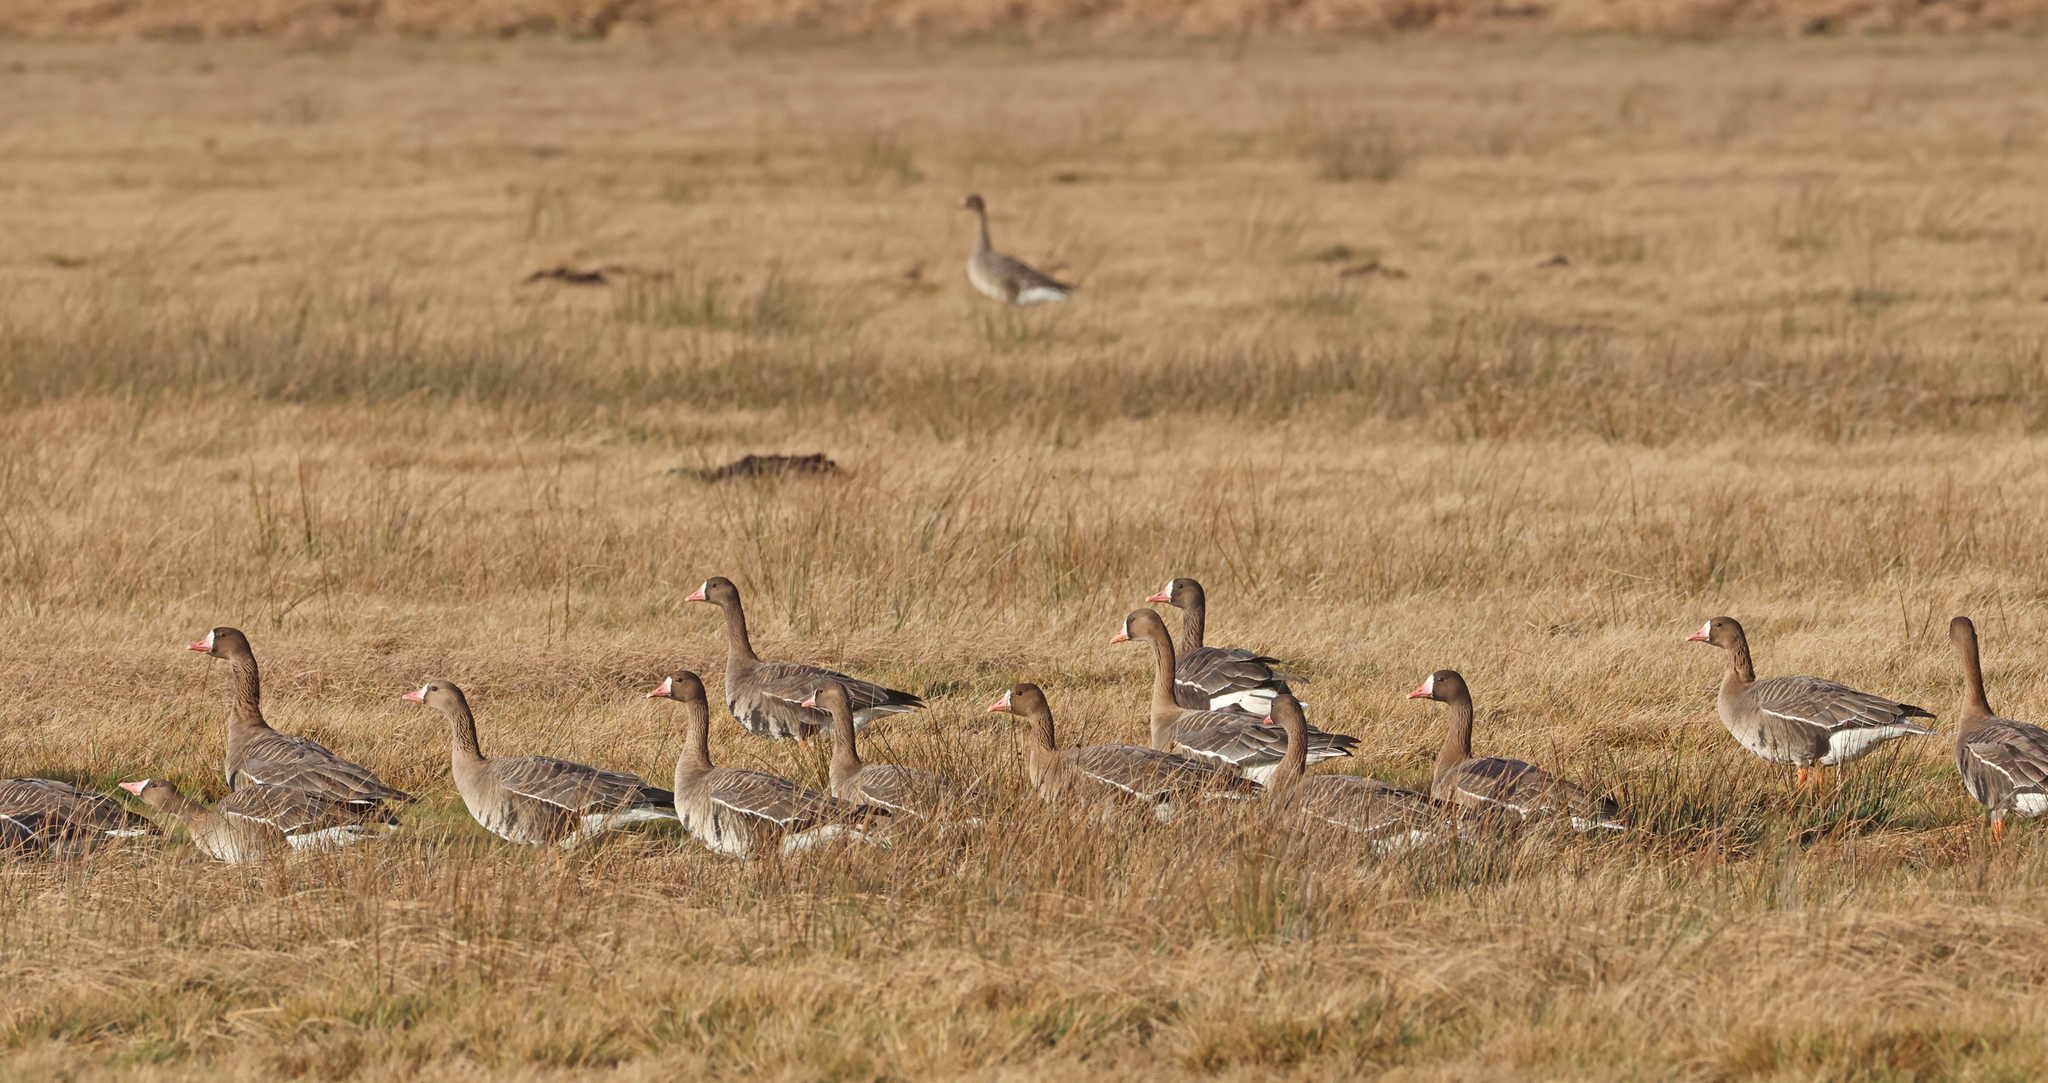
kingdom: Animalia
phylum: Chordata
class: Aves
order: Anseriformes
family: Anatidae
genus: Anser
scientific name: Anser albifrons
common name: Greater white-fronted goose
